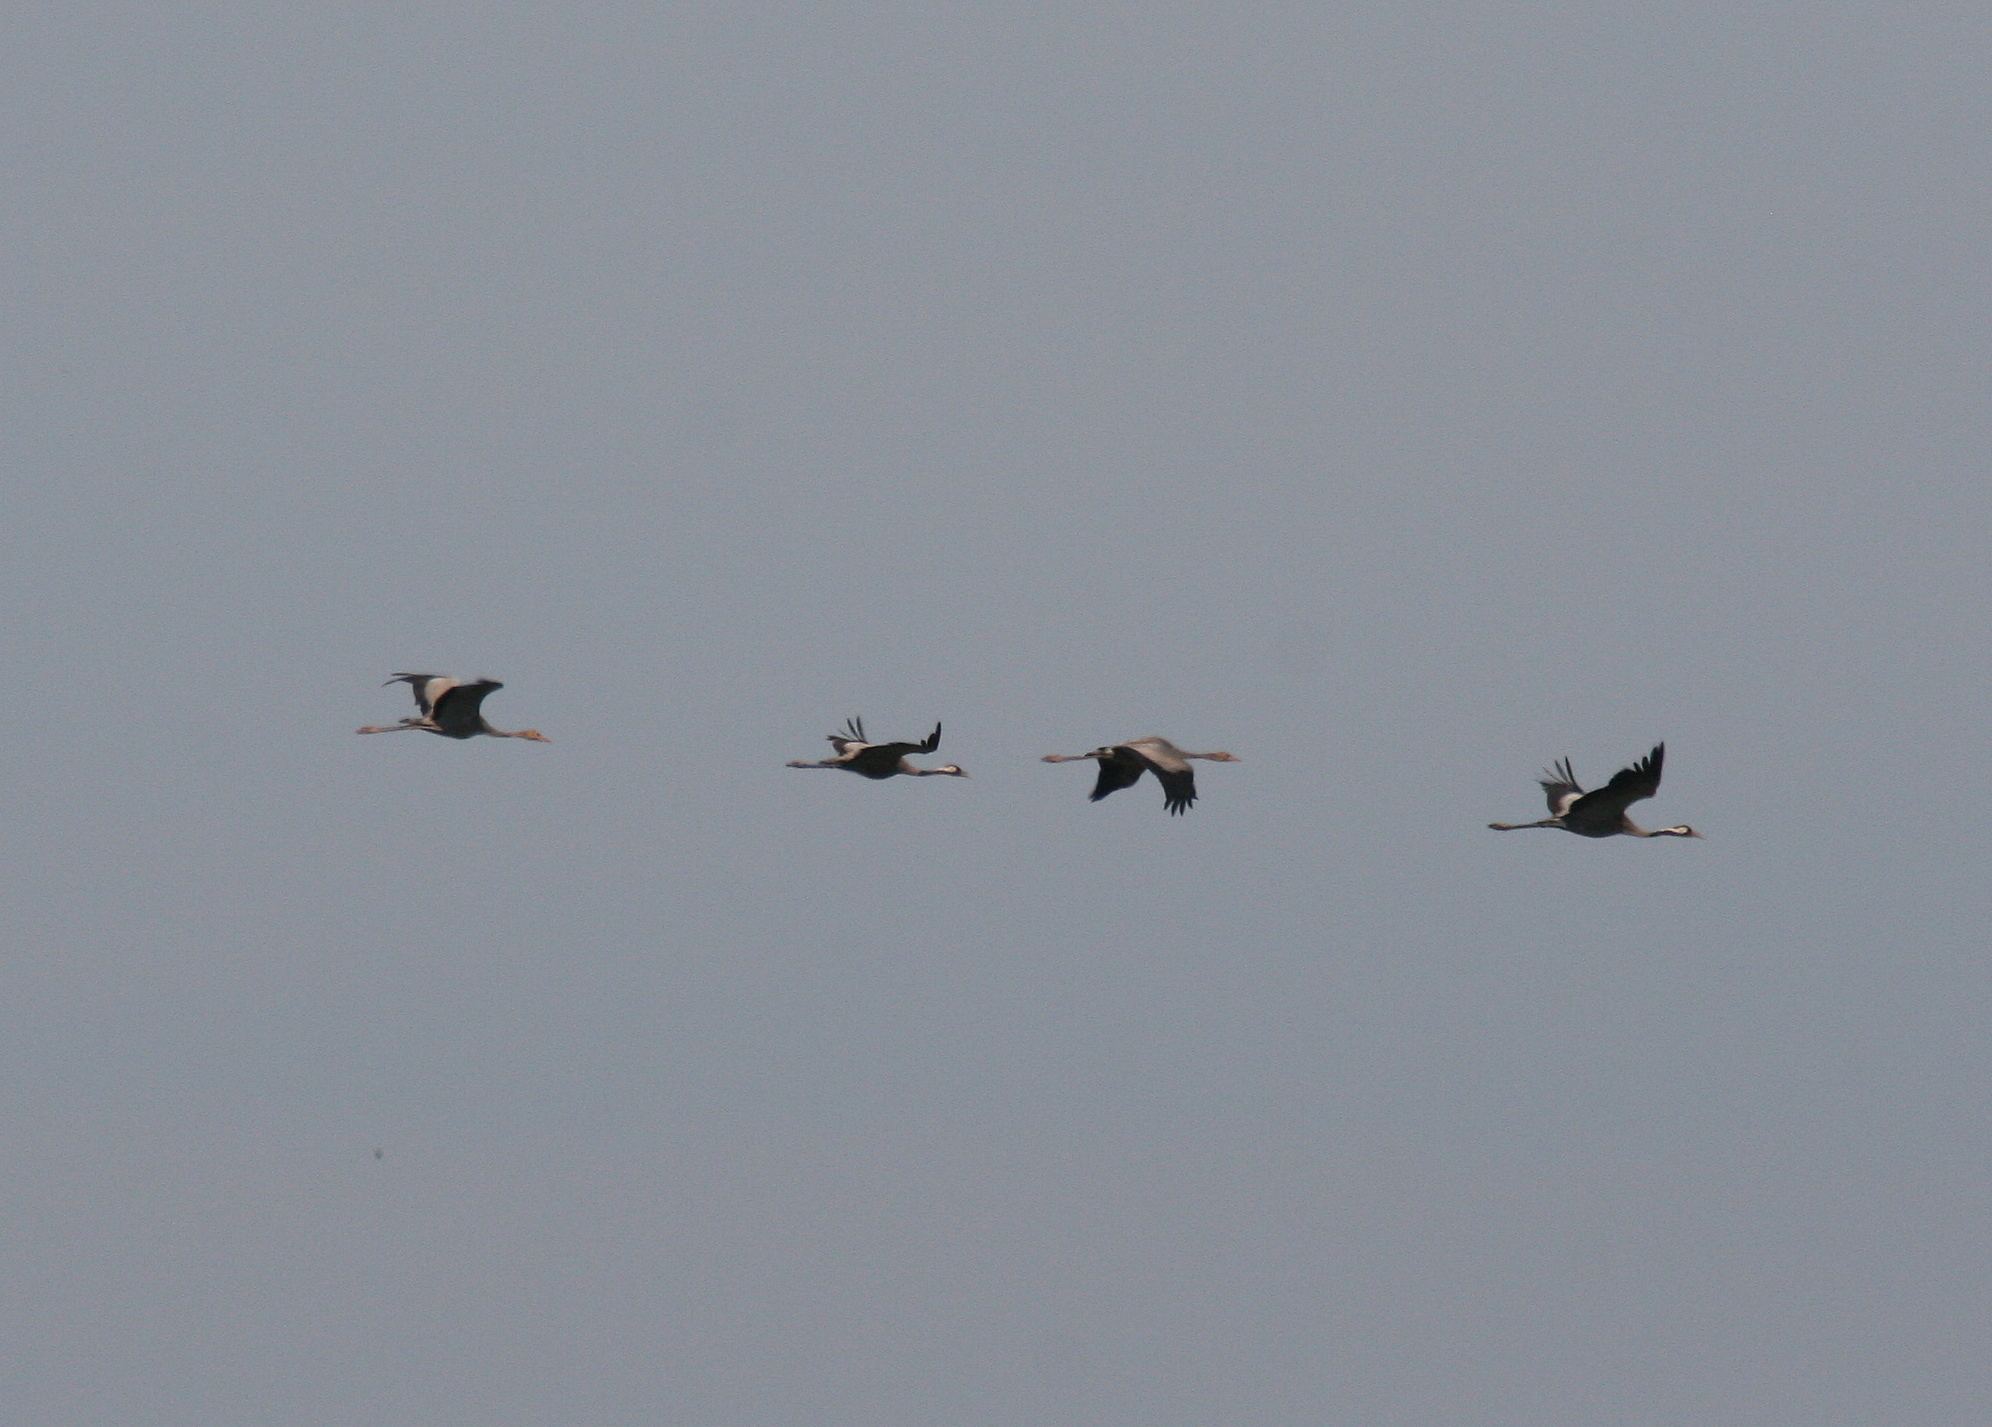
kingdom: Animalia
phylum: Chordata
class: Aves
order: Gruiformes
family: Gruidae
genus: Grus
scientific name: Grus grus
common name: Common crane
